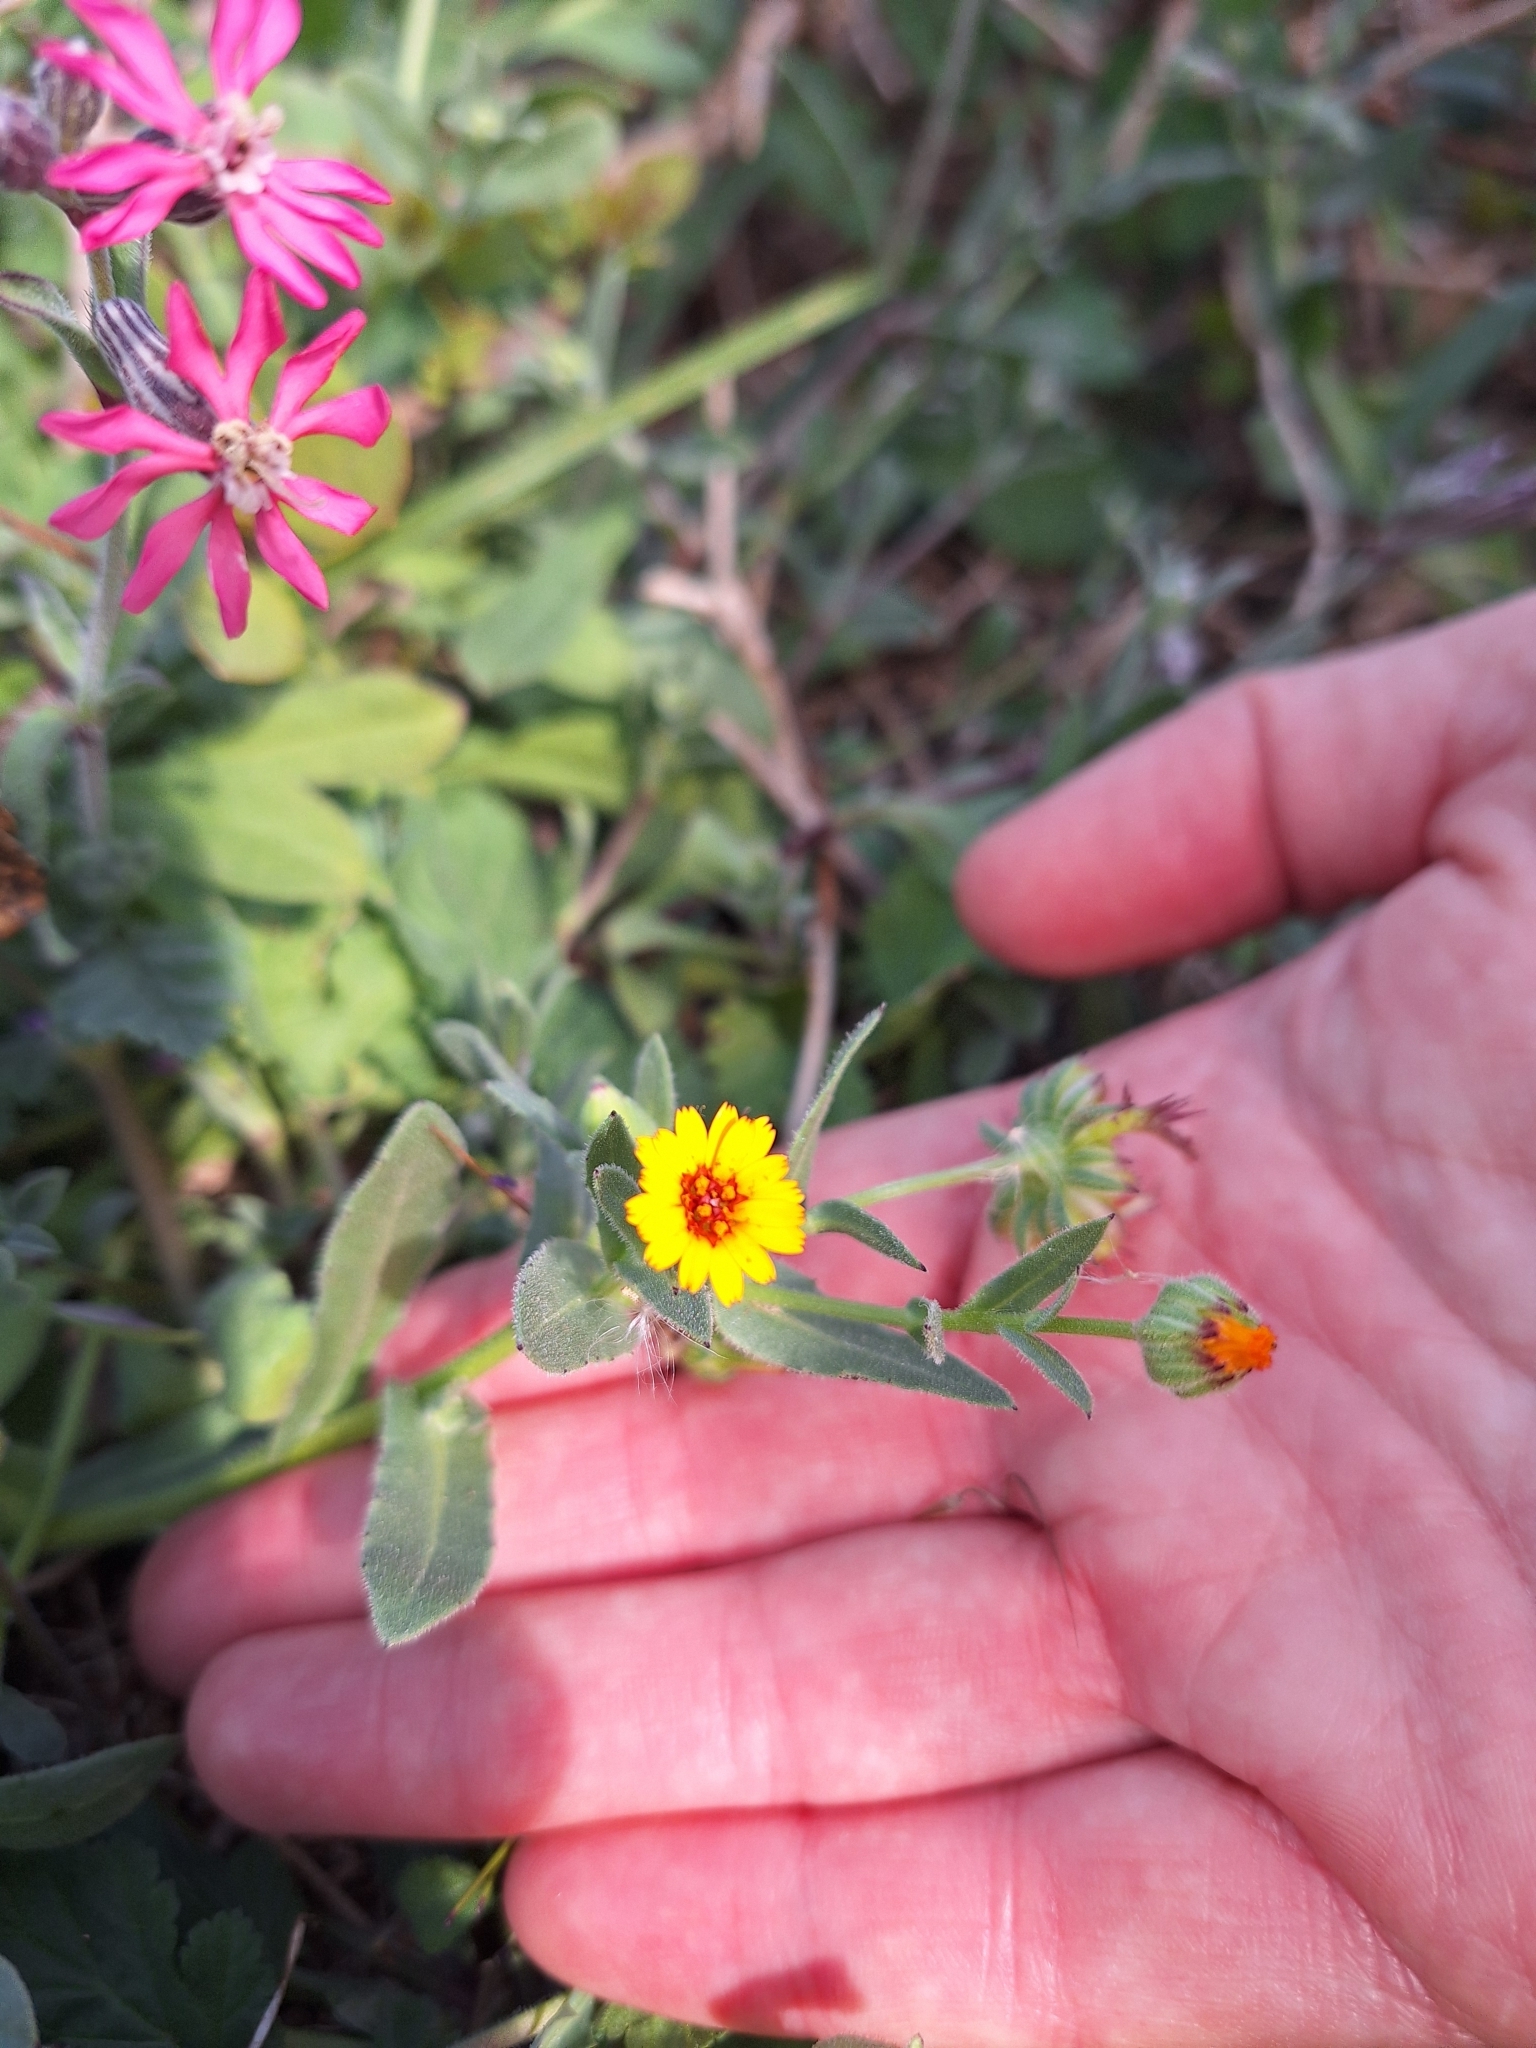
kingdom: Plantae
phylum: Tracheophyta
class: Magnoliopsida
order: Asterales
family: Asteraceae
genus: Calendula
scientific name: Calendula arvensis
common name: Field marigold
